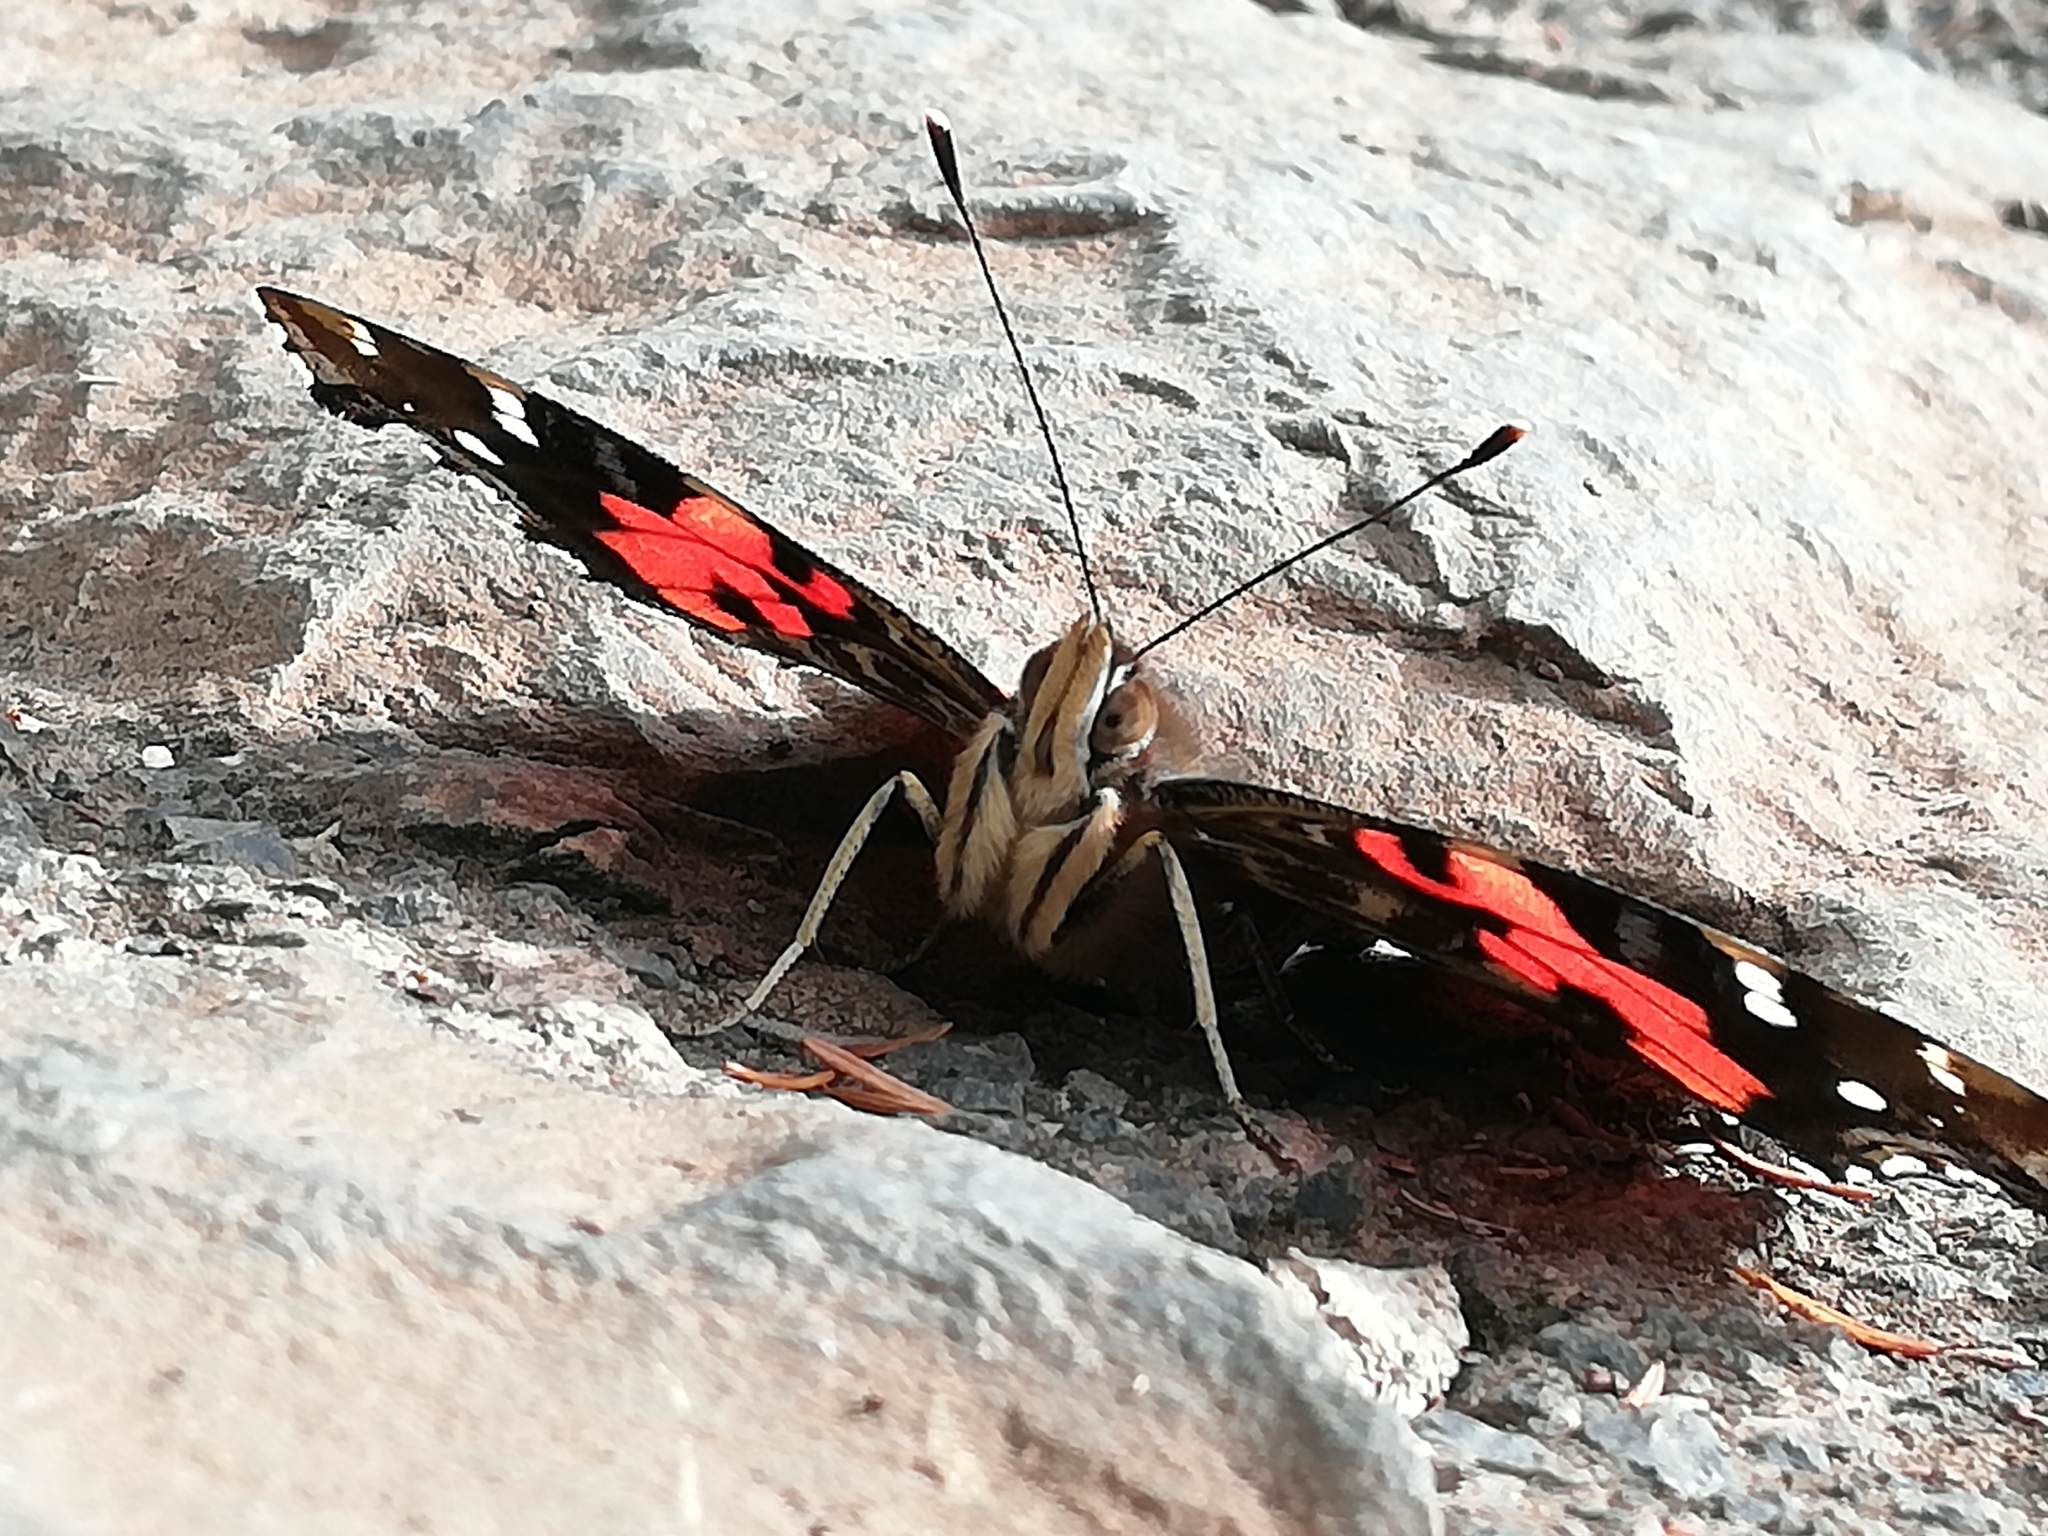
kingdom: Animalia
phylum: Arthropoda
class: Insecta
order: Lepidoptera
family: Nymphalidae
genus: Vanessa
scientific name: Vanessa vulcania
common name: Canary red admiral
